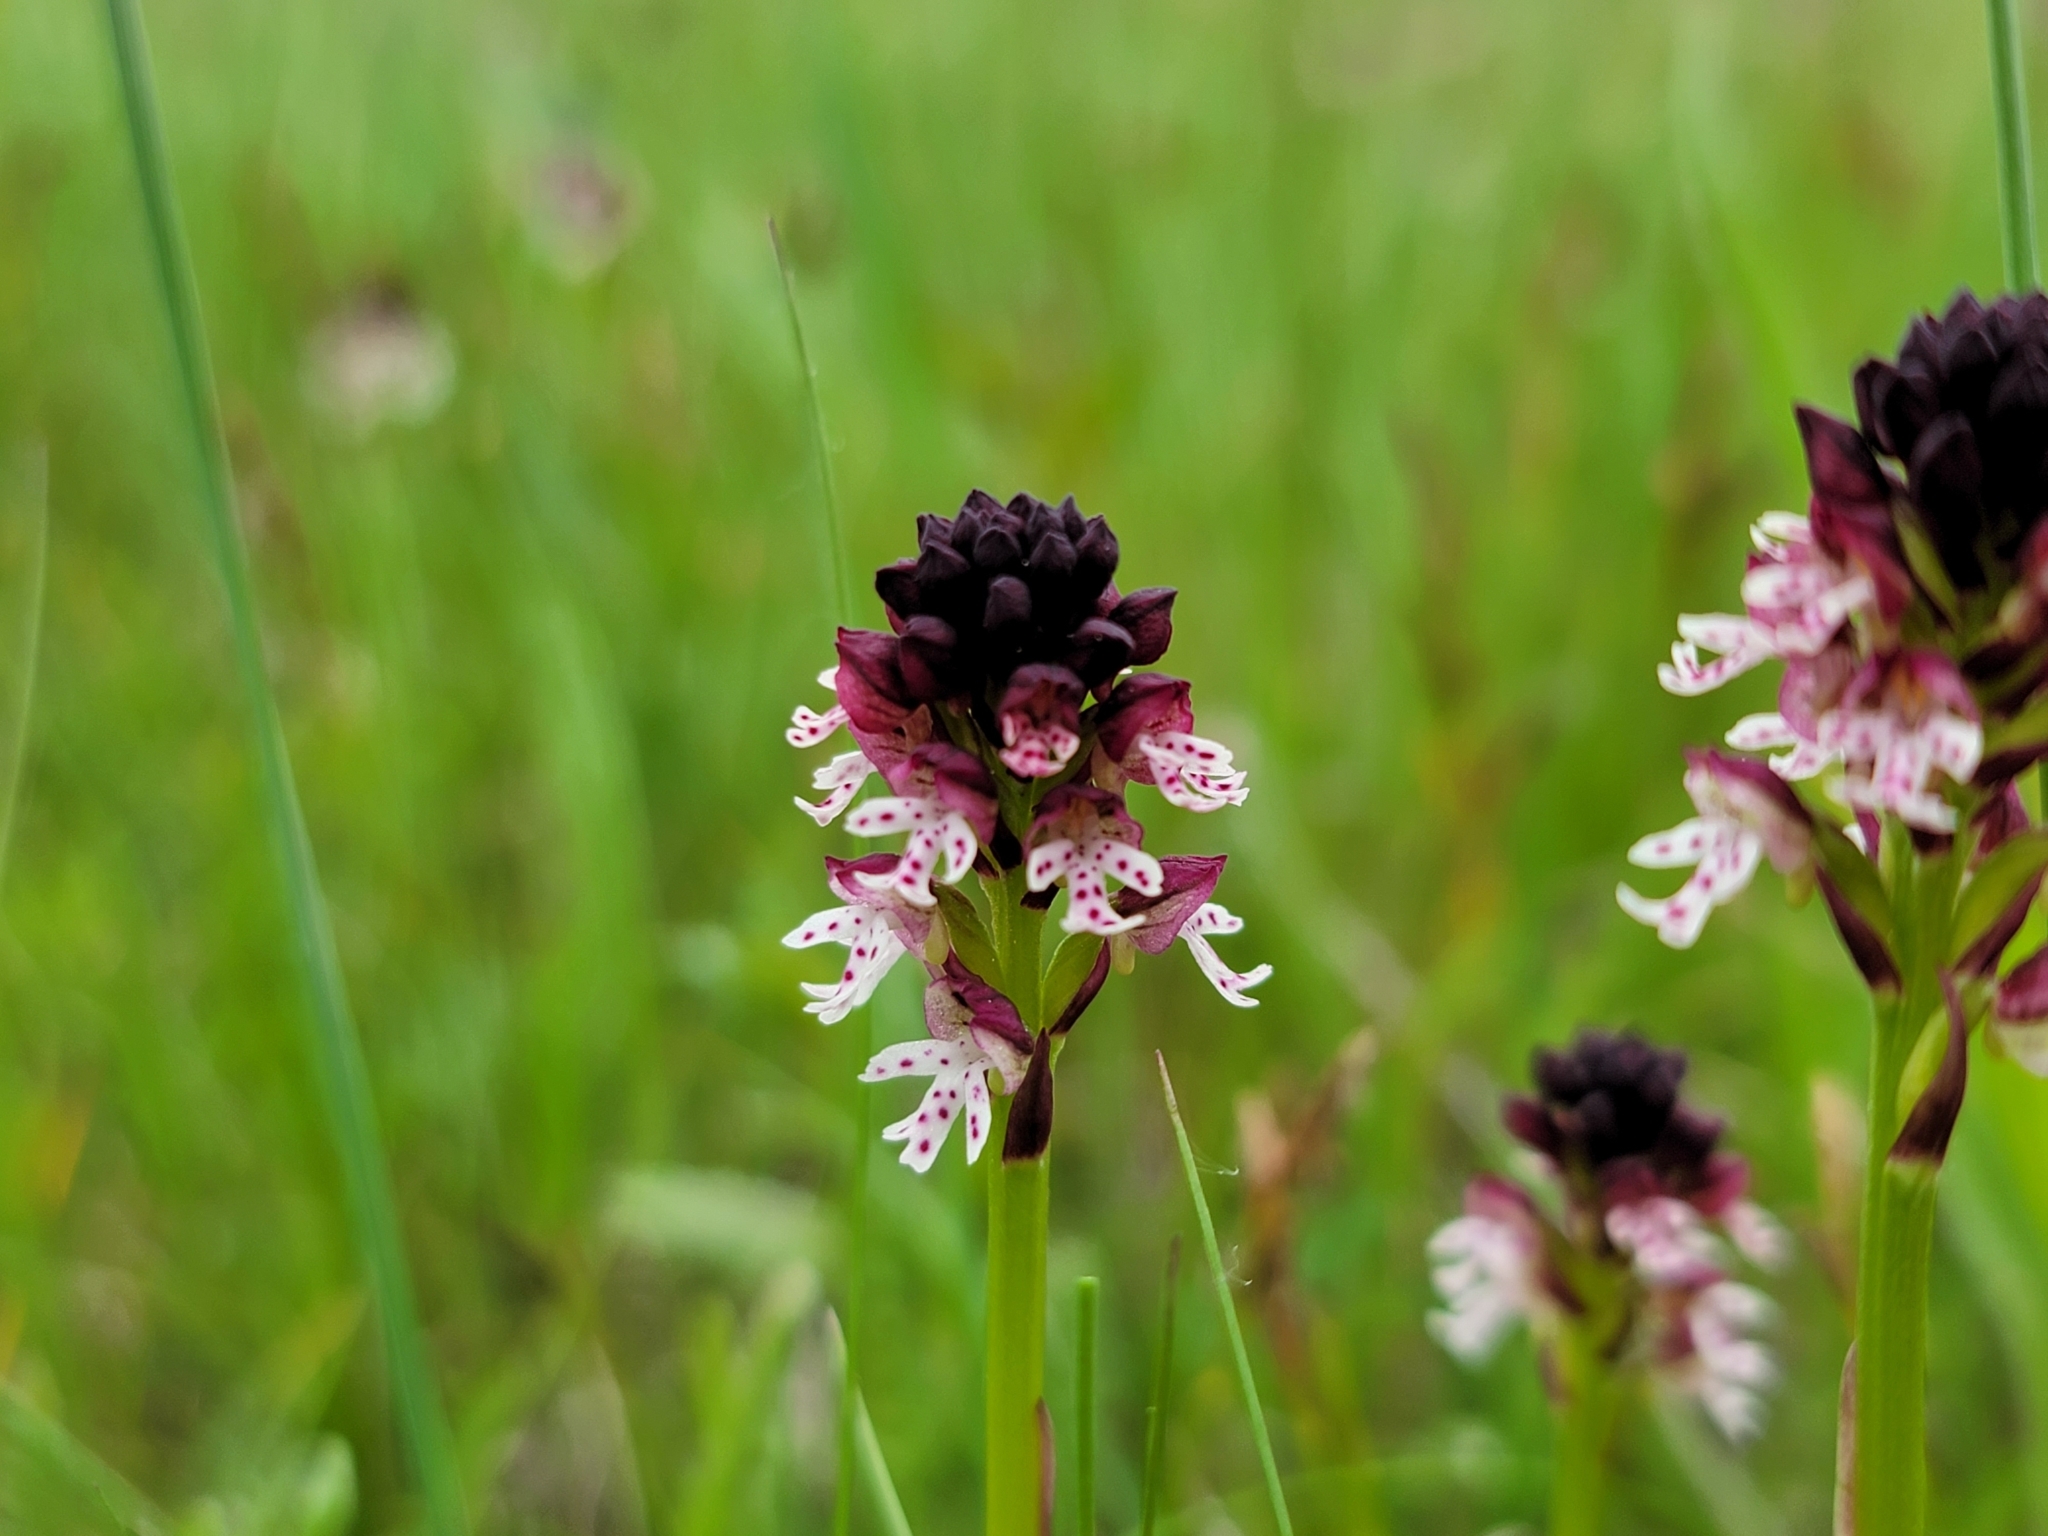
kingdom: Plantae
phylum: Tracheophyta
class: Liliopsida
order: Asparagales
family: Orchidaceae
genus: Neotinea
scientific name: Neotinea ustulata
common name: Burnt orchid
